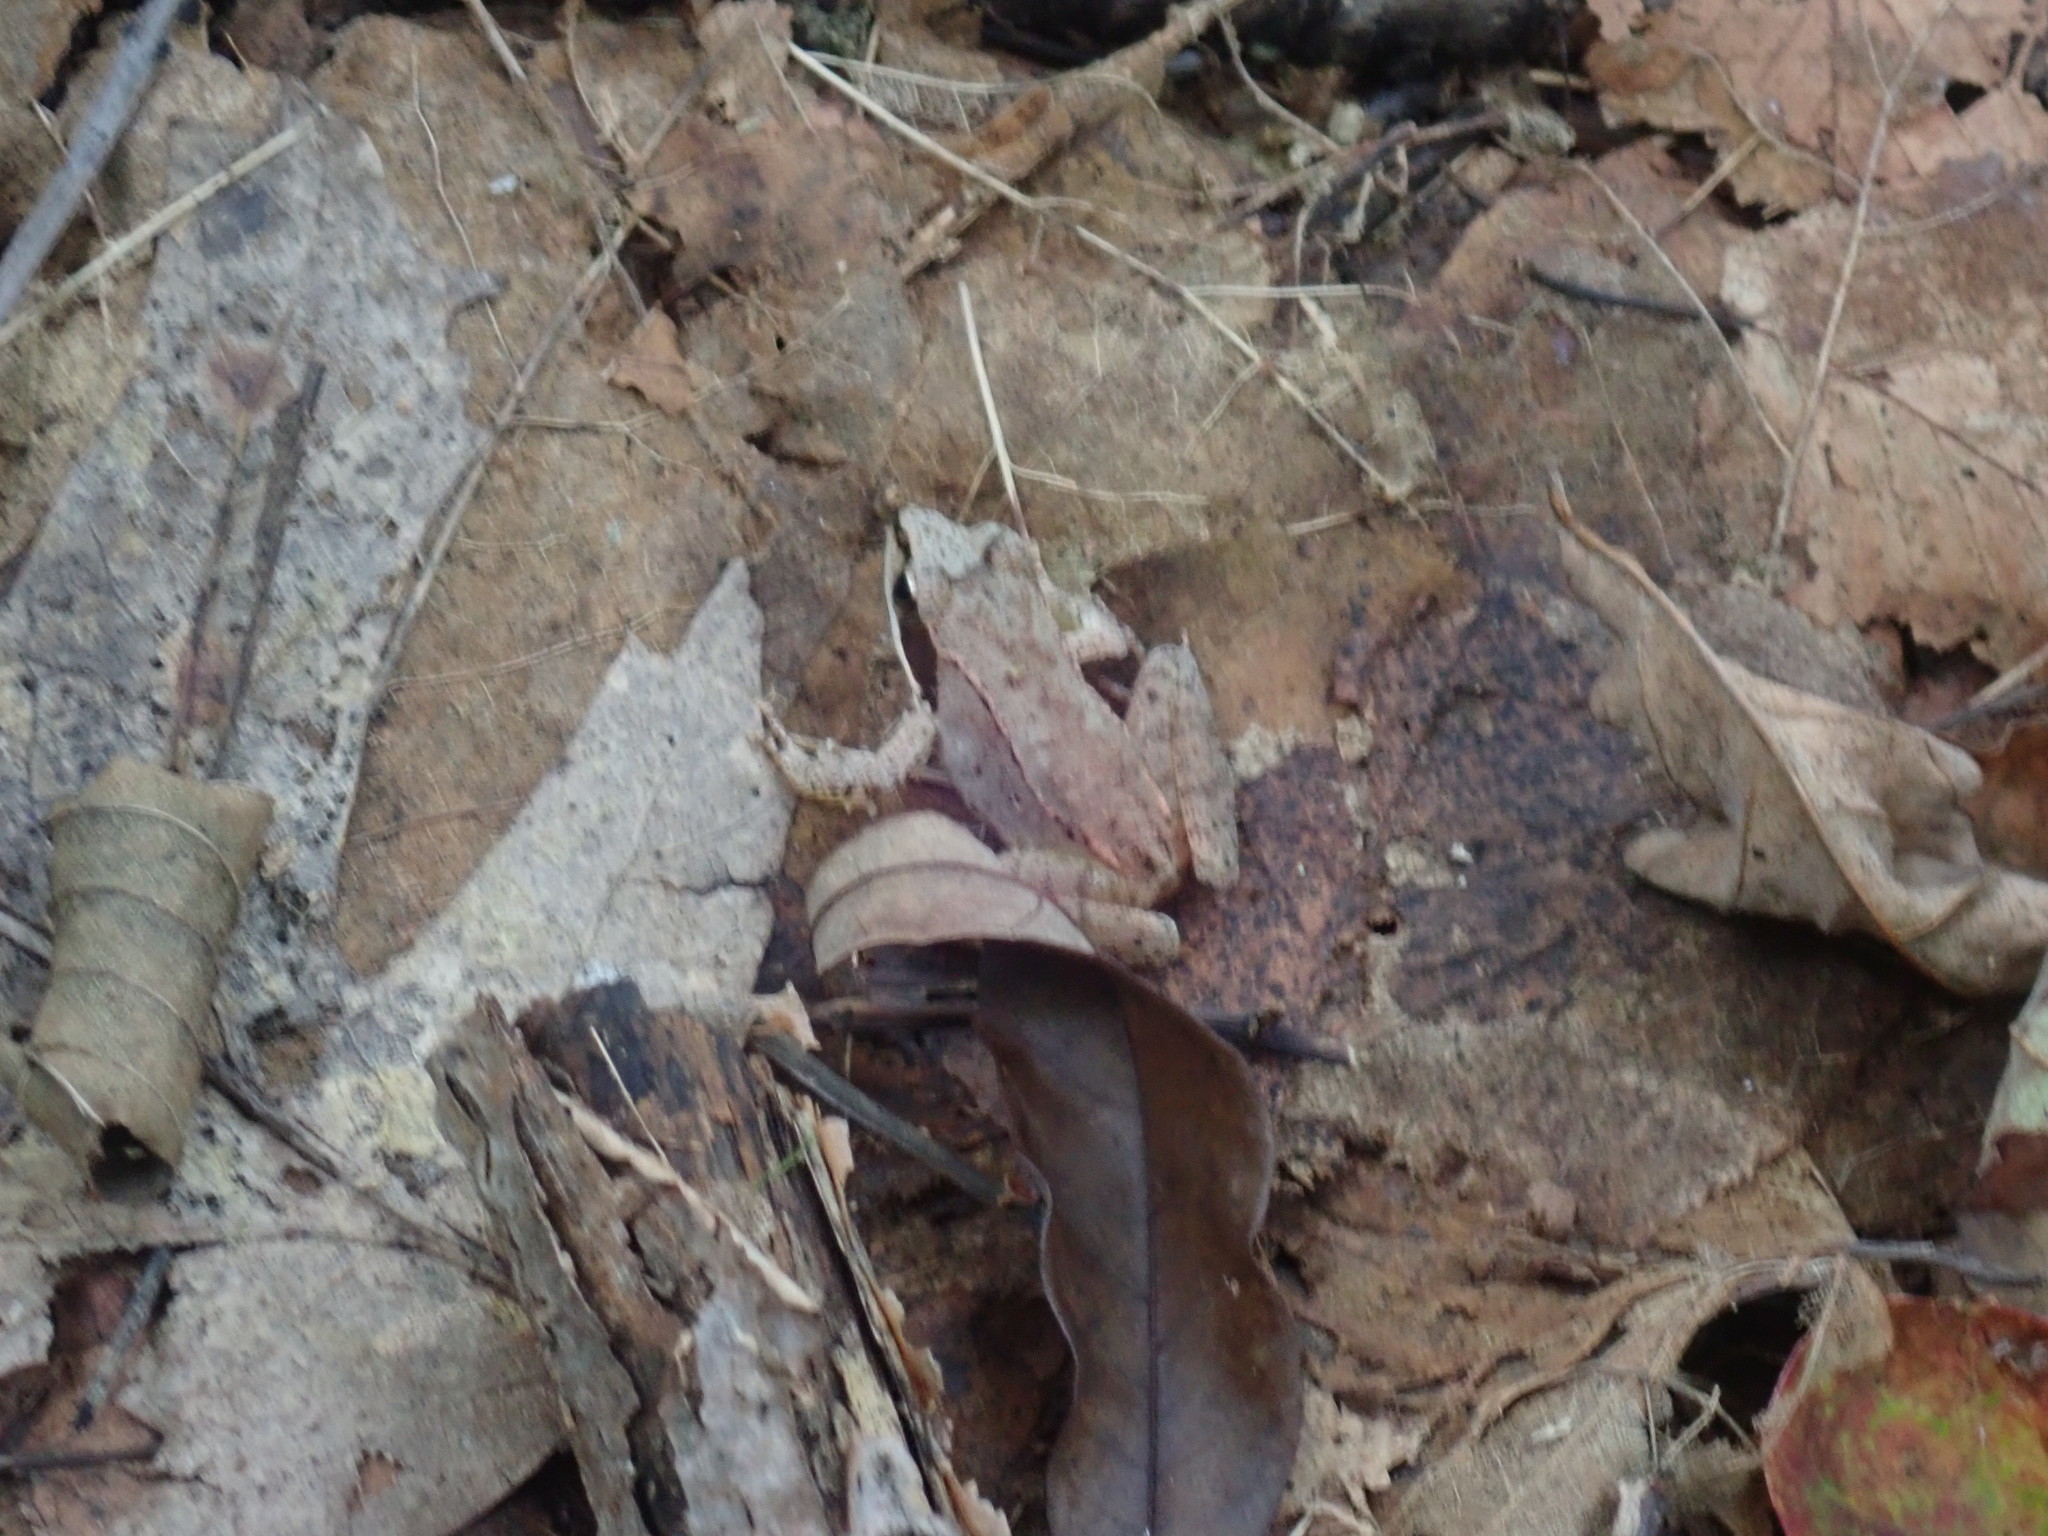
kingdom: Animalia
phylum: Chordata
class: Amphibia
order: Anura
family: Ranidae
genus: Lithobates
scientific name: Lithobates sylvaticus
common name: Wood frog
